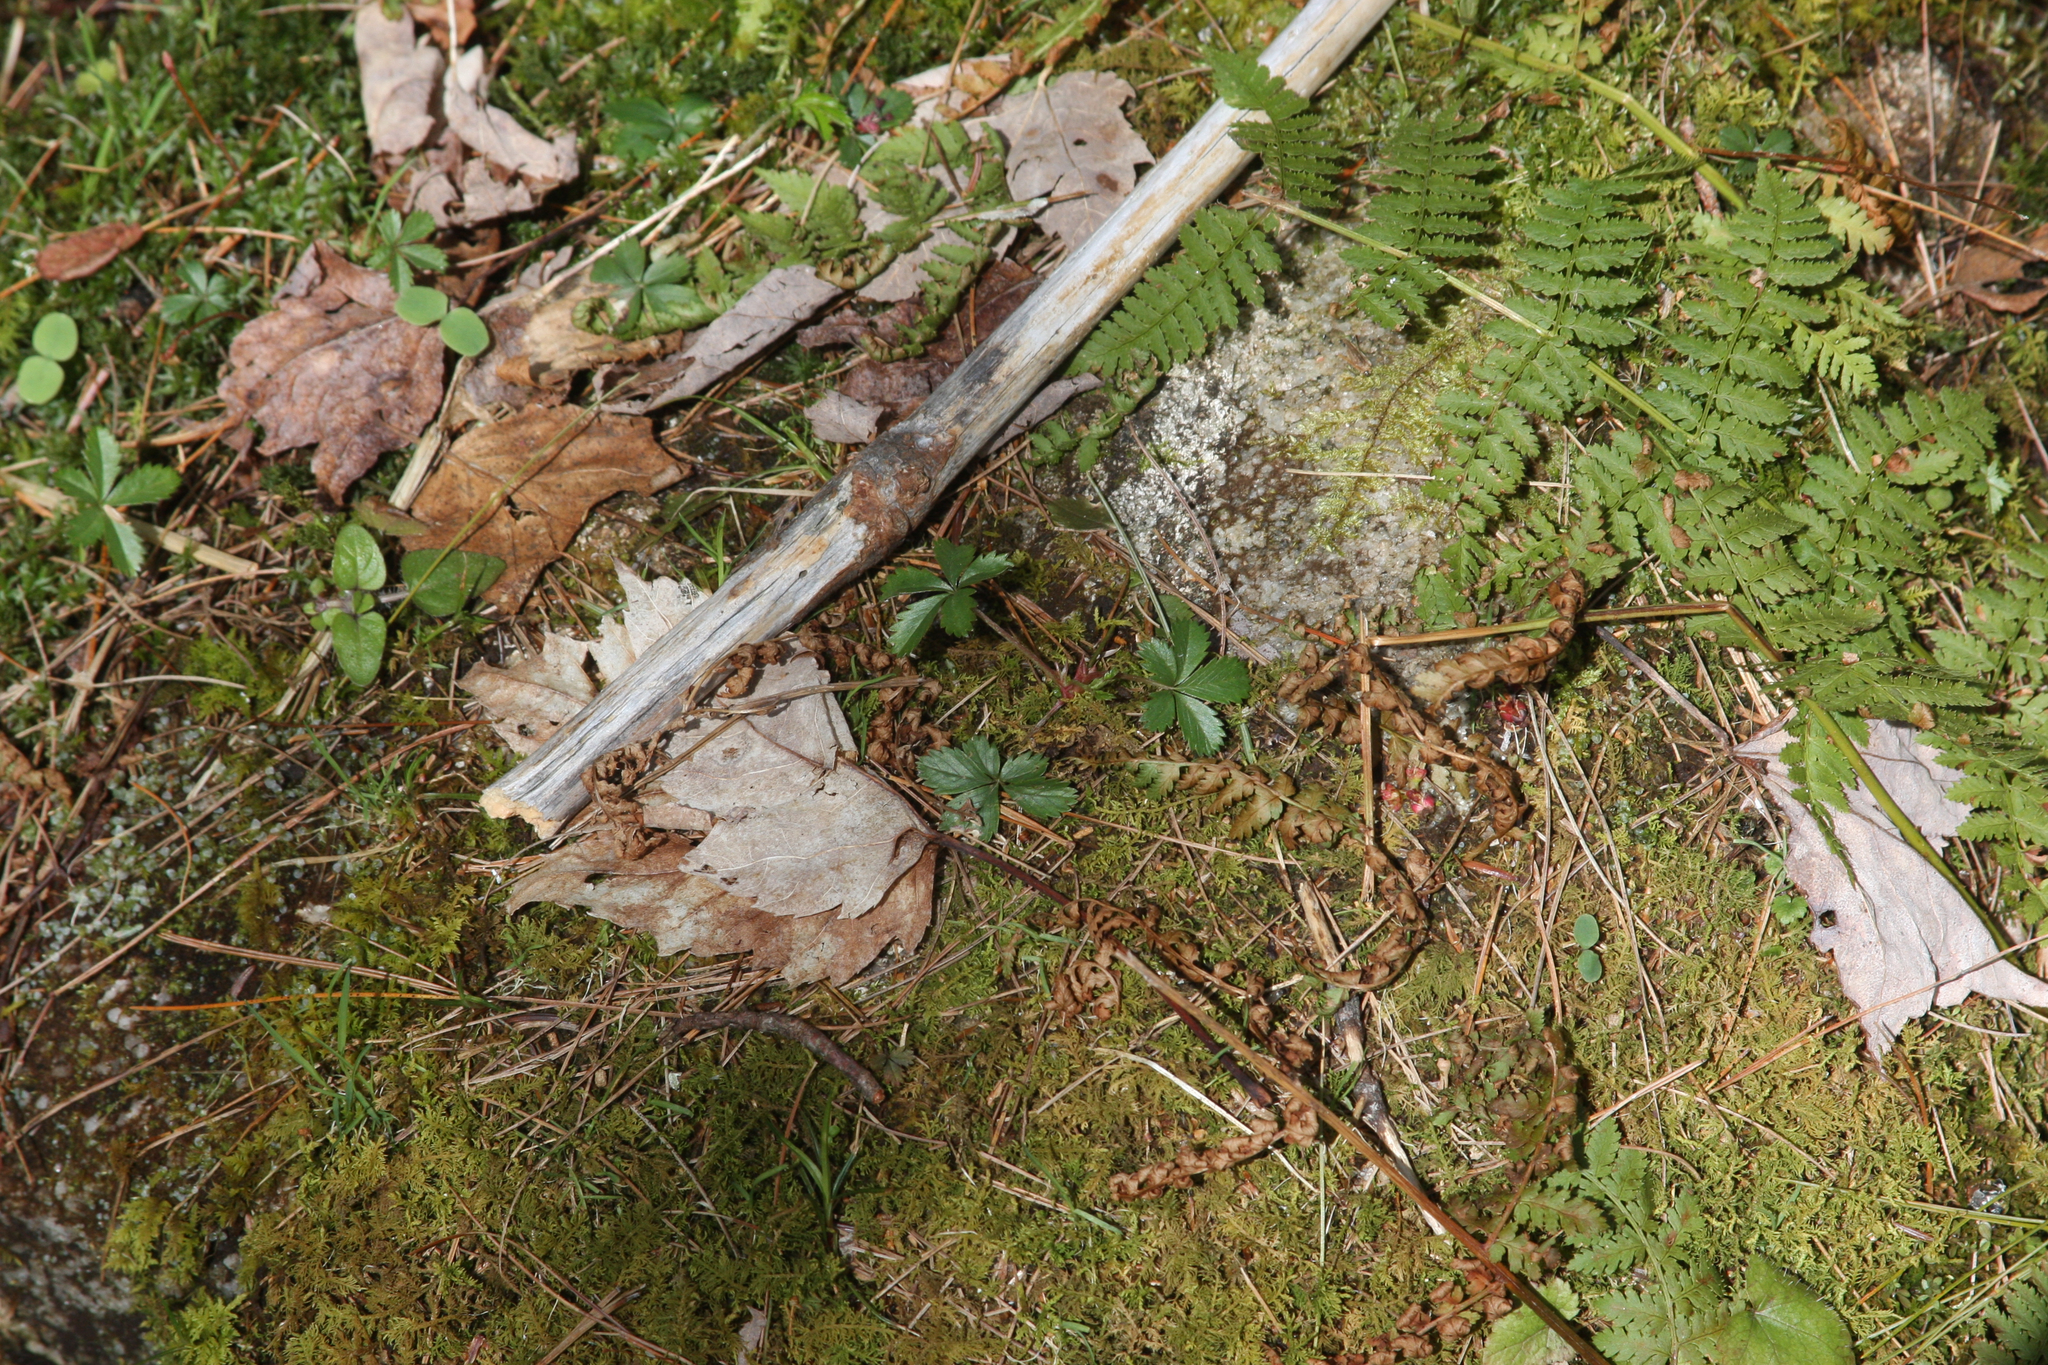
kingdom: Plantae
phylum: Tracheophyta
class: Polypodiopsida
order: Polypodiales
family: Dryopteridaceae
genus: Dryopteris
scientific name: Dryopteris intermedia
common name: Evergreen wood fern
